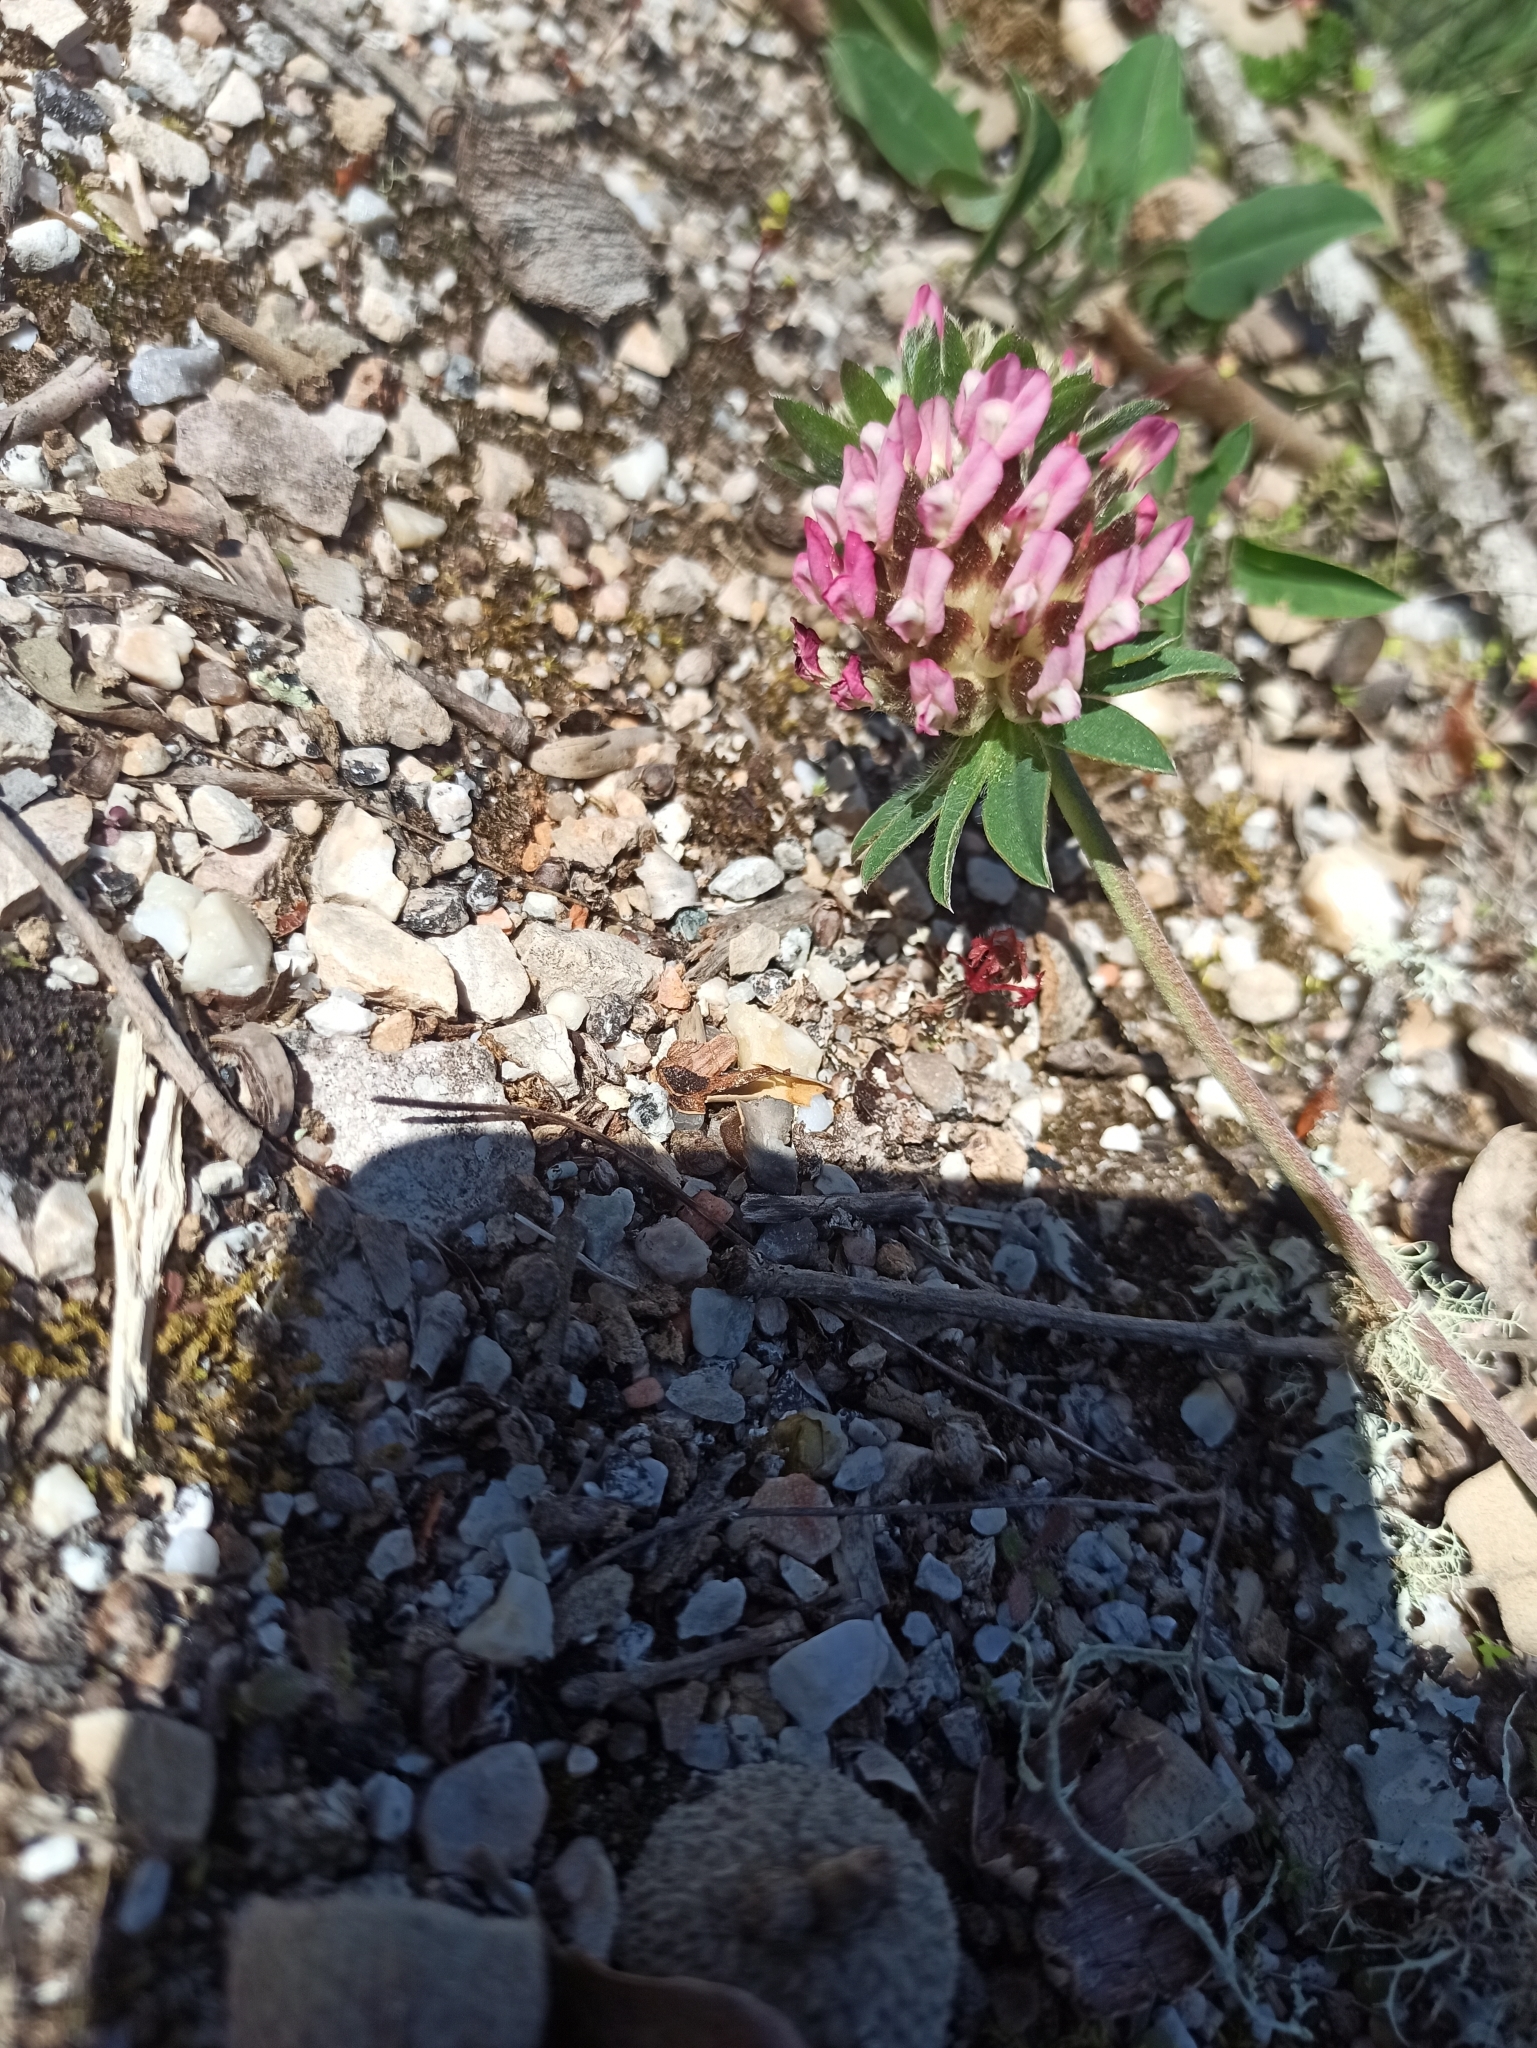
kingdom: Plantae
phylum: Tracheophyta
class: Magnoliopsida
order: Fabales
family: Fabaceae
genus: Anthyllis
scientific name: Anthyllis vulneraria
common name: Kidney vetch
